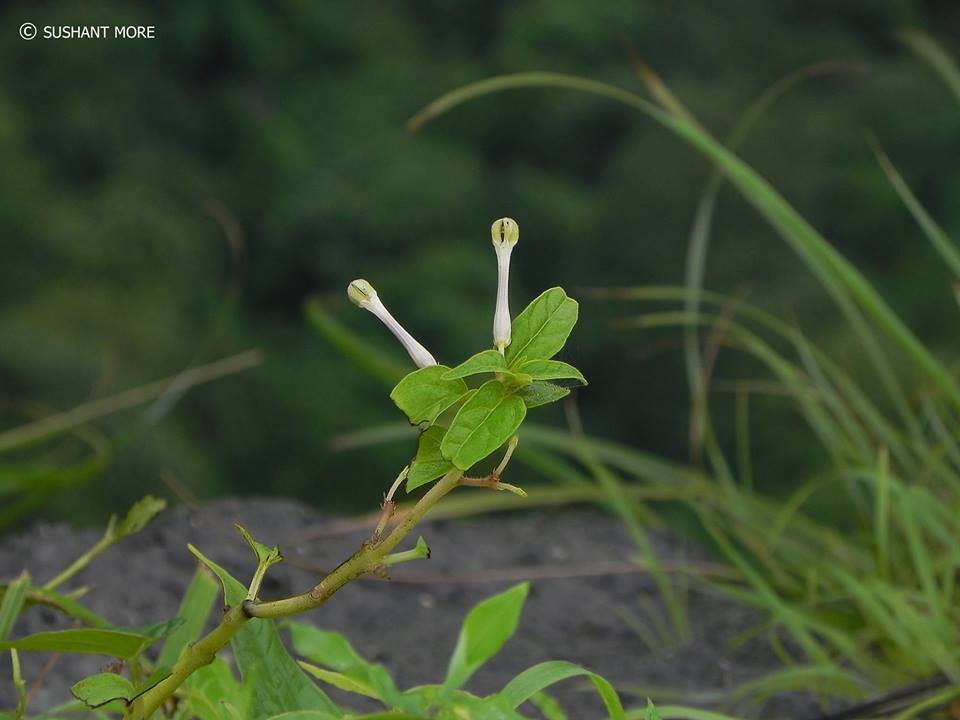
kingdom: Plantae
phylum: Tracheophyta
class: Magnoliopsida
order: Gentianales
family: Apocynaceae
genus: Ceropegia
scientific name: Ceropegia lawii
